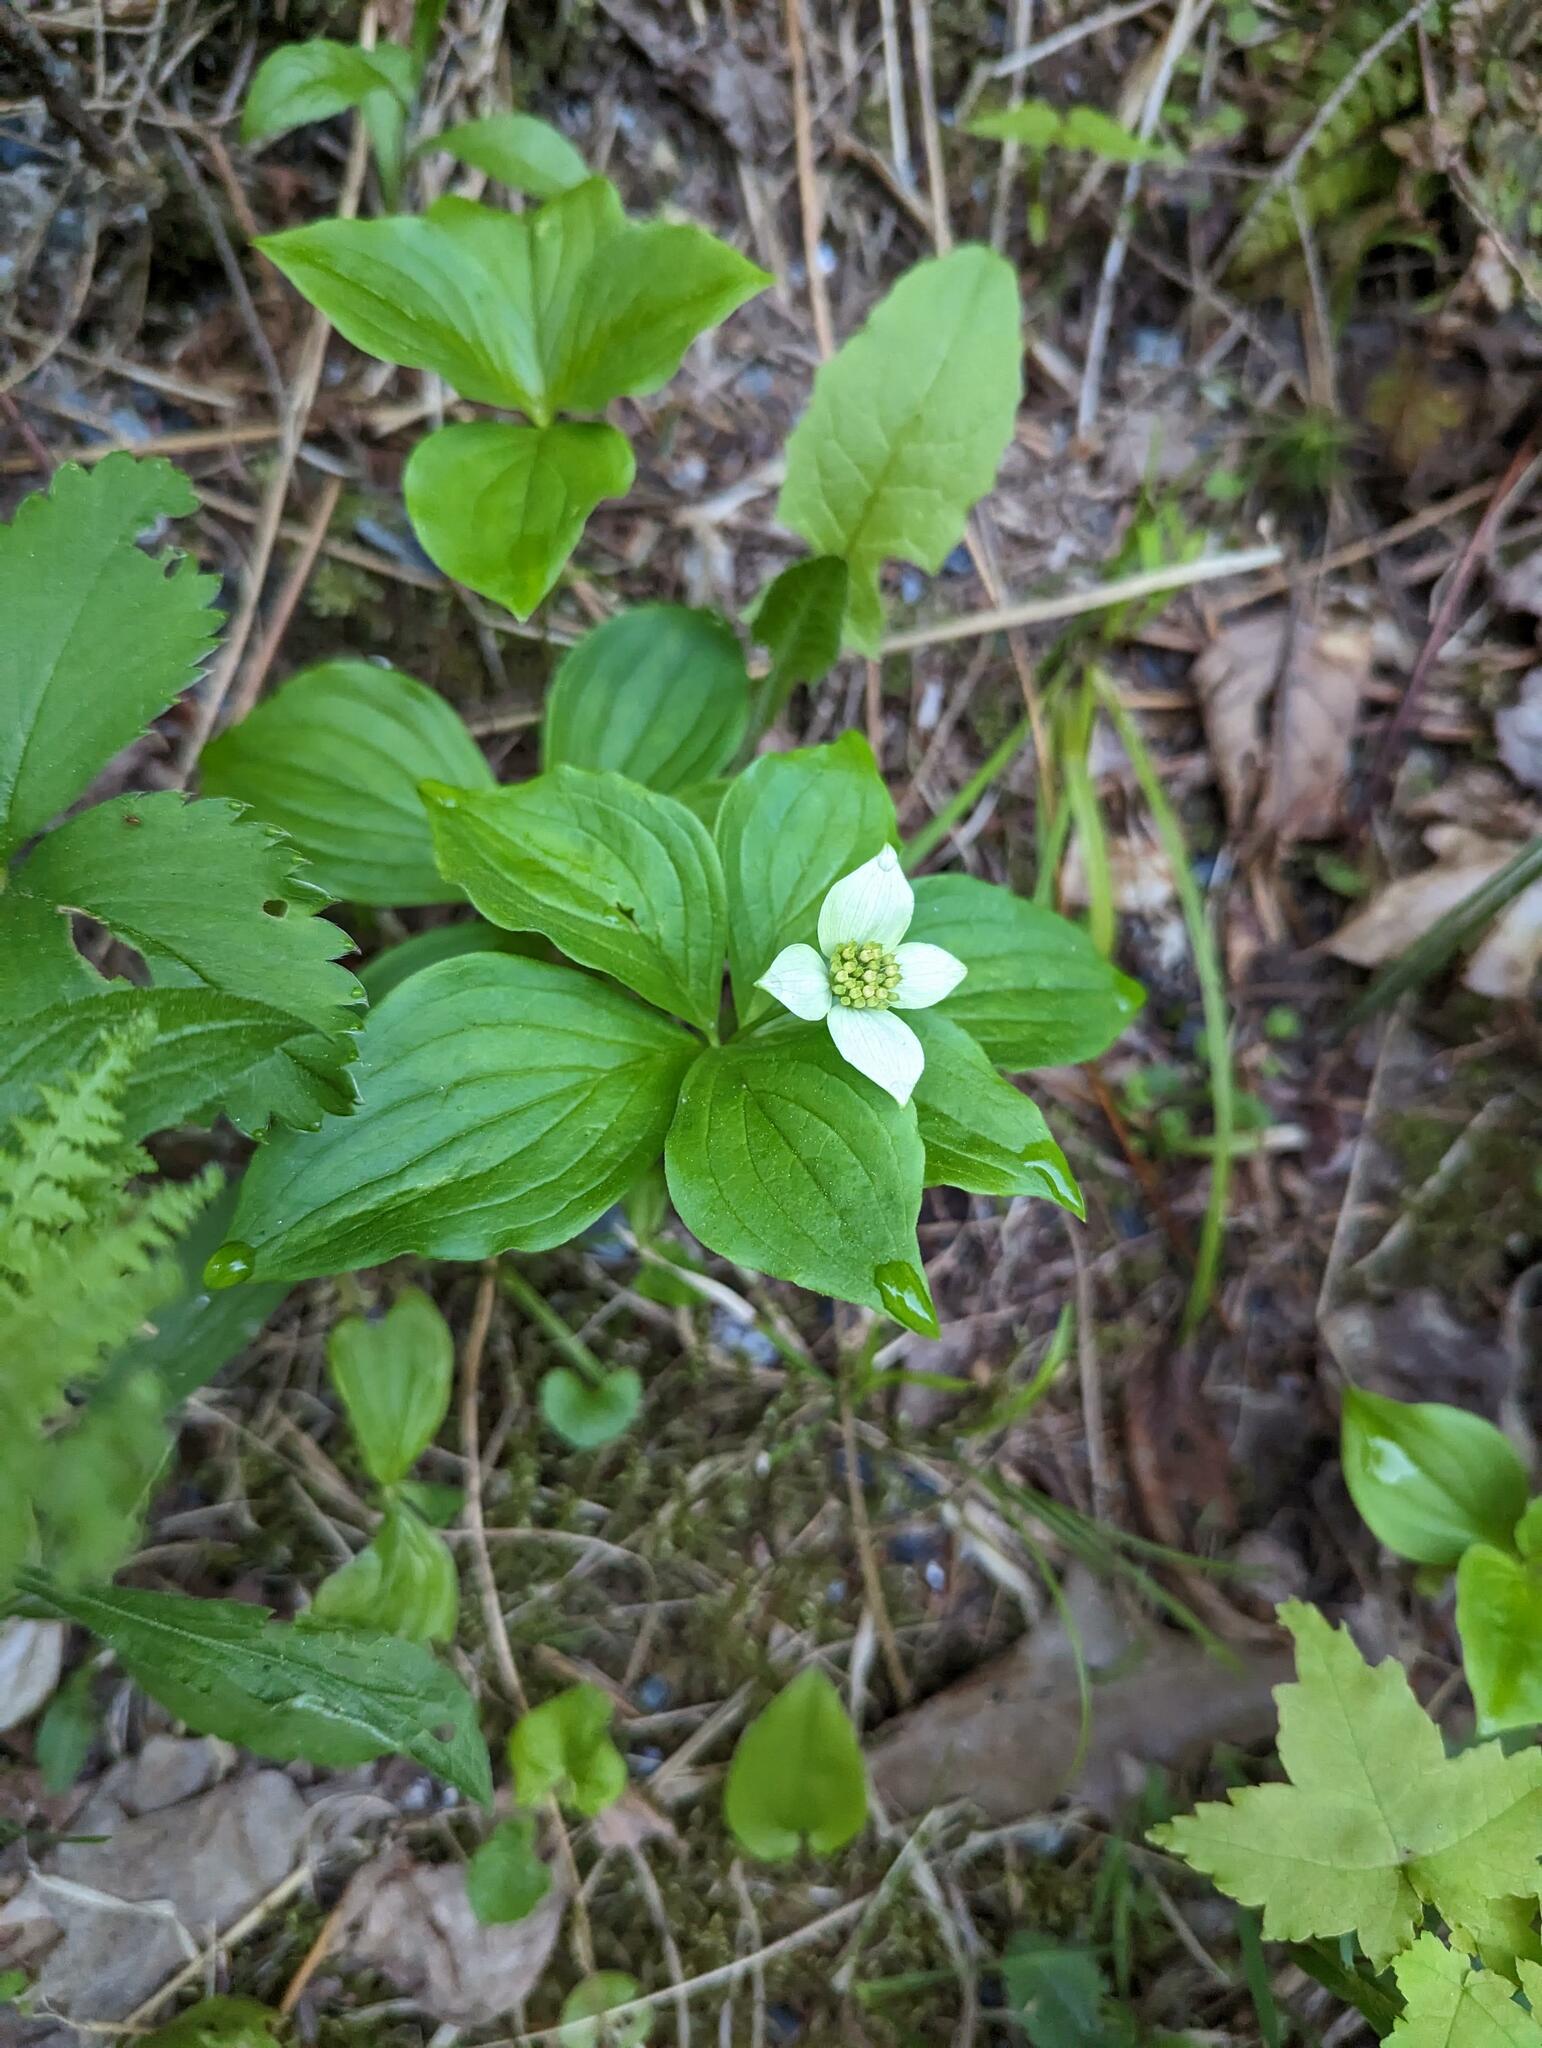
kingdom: Plantae
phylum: Tracheophyta
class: Magnoliopsida
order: Cornales
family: Cornaceae
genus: Cornus
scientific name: Cornus canadensis
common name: Creeping dogwood
